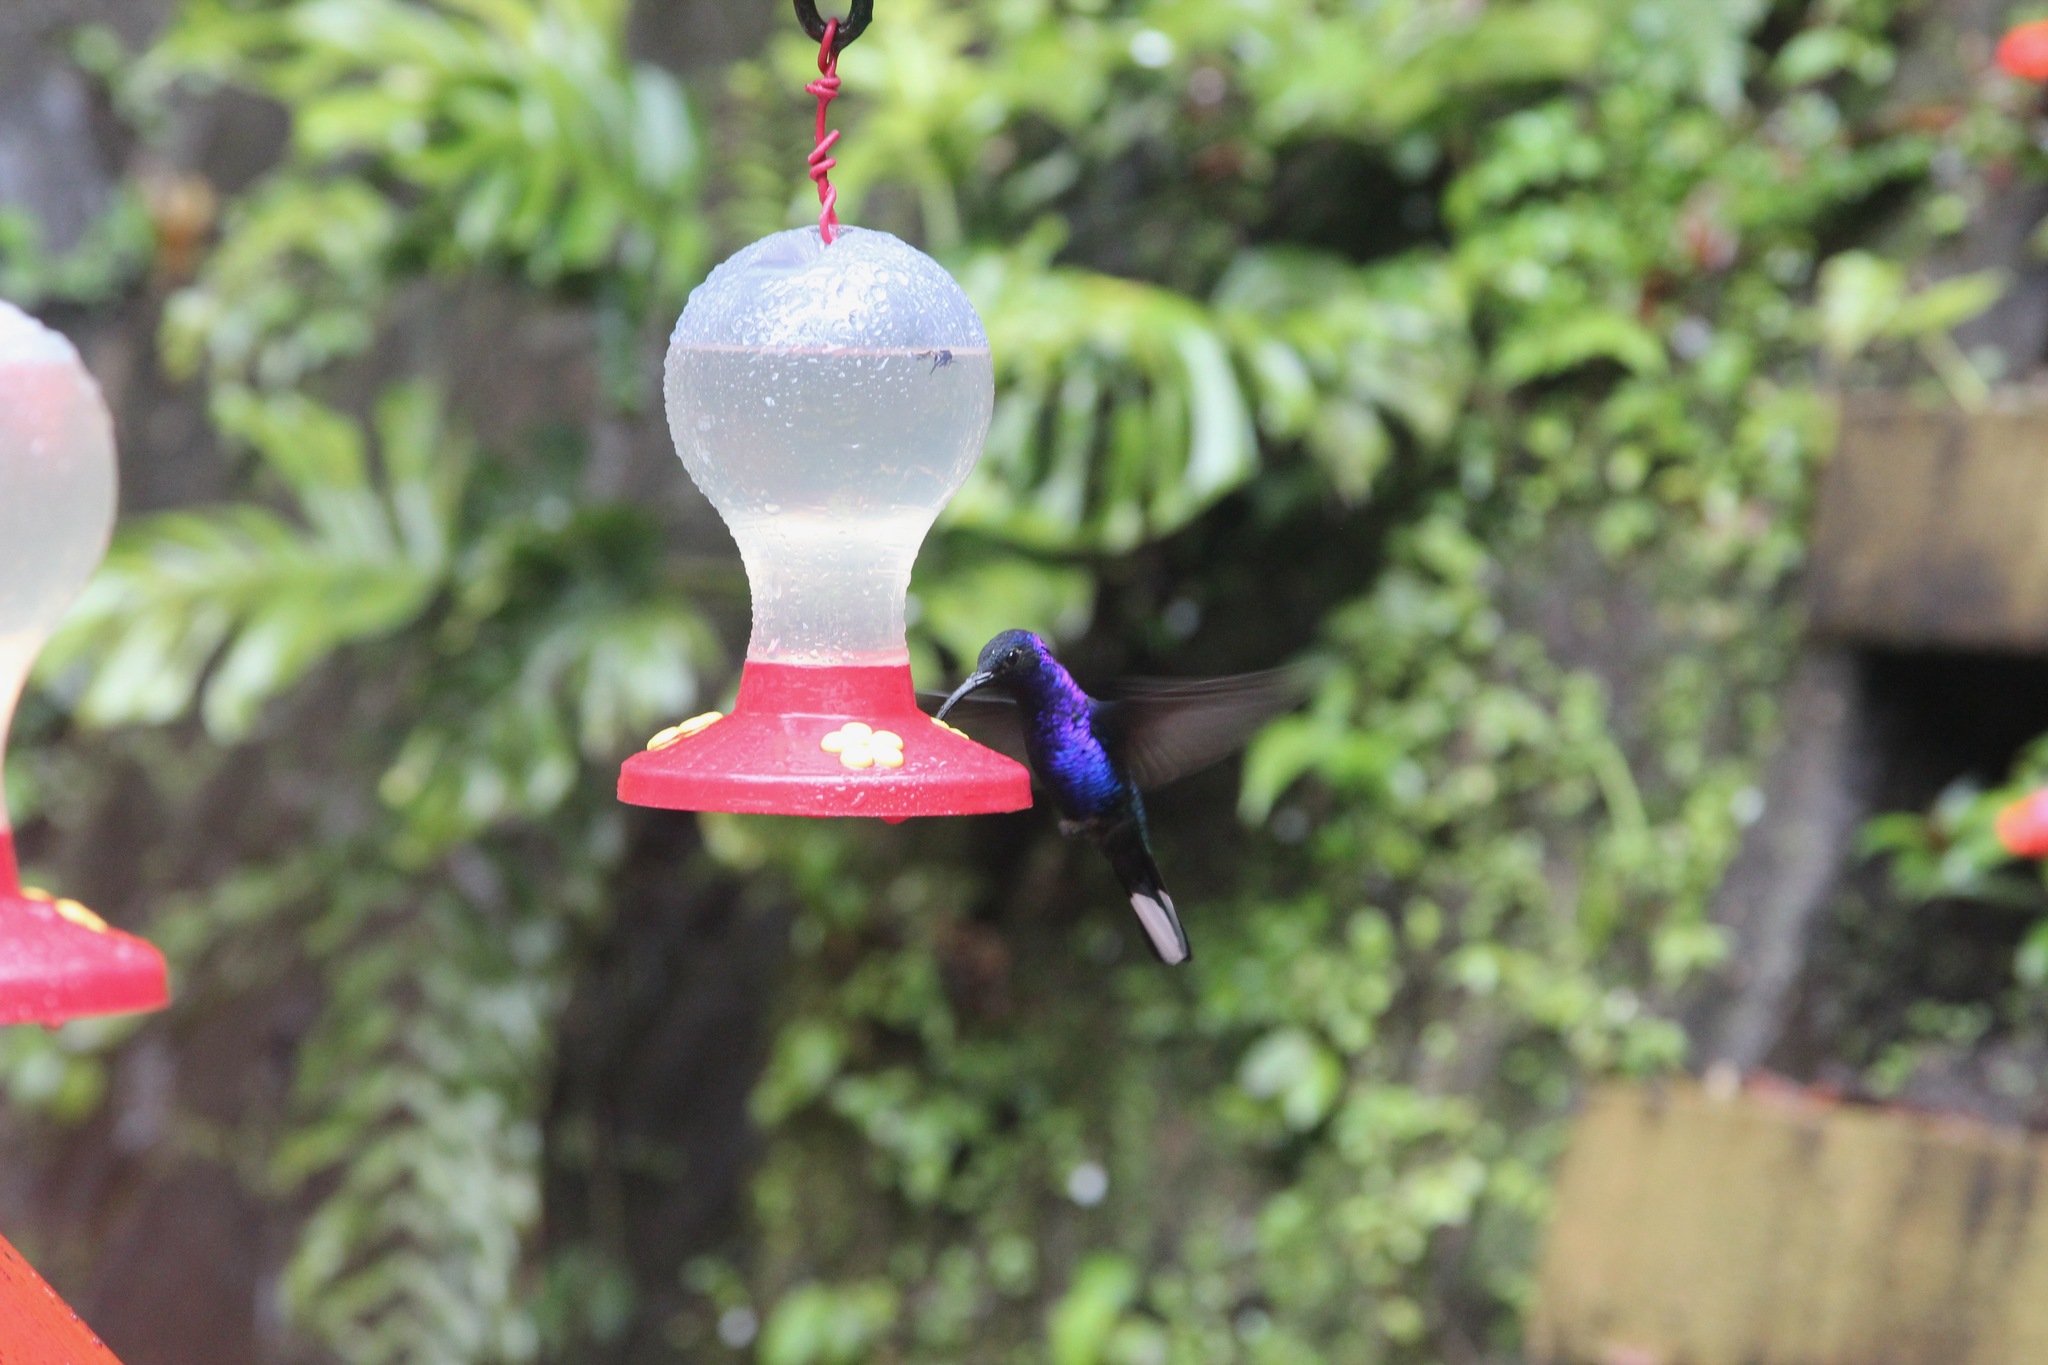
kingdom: Animalia
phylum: Chordata
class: Aves
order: Apodiformes
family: Trochilidae
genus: Campylopterus
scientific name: Campylopterus hemileucurus
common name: Violet sabrewing
